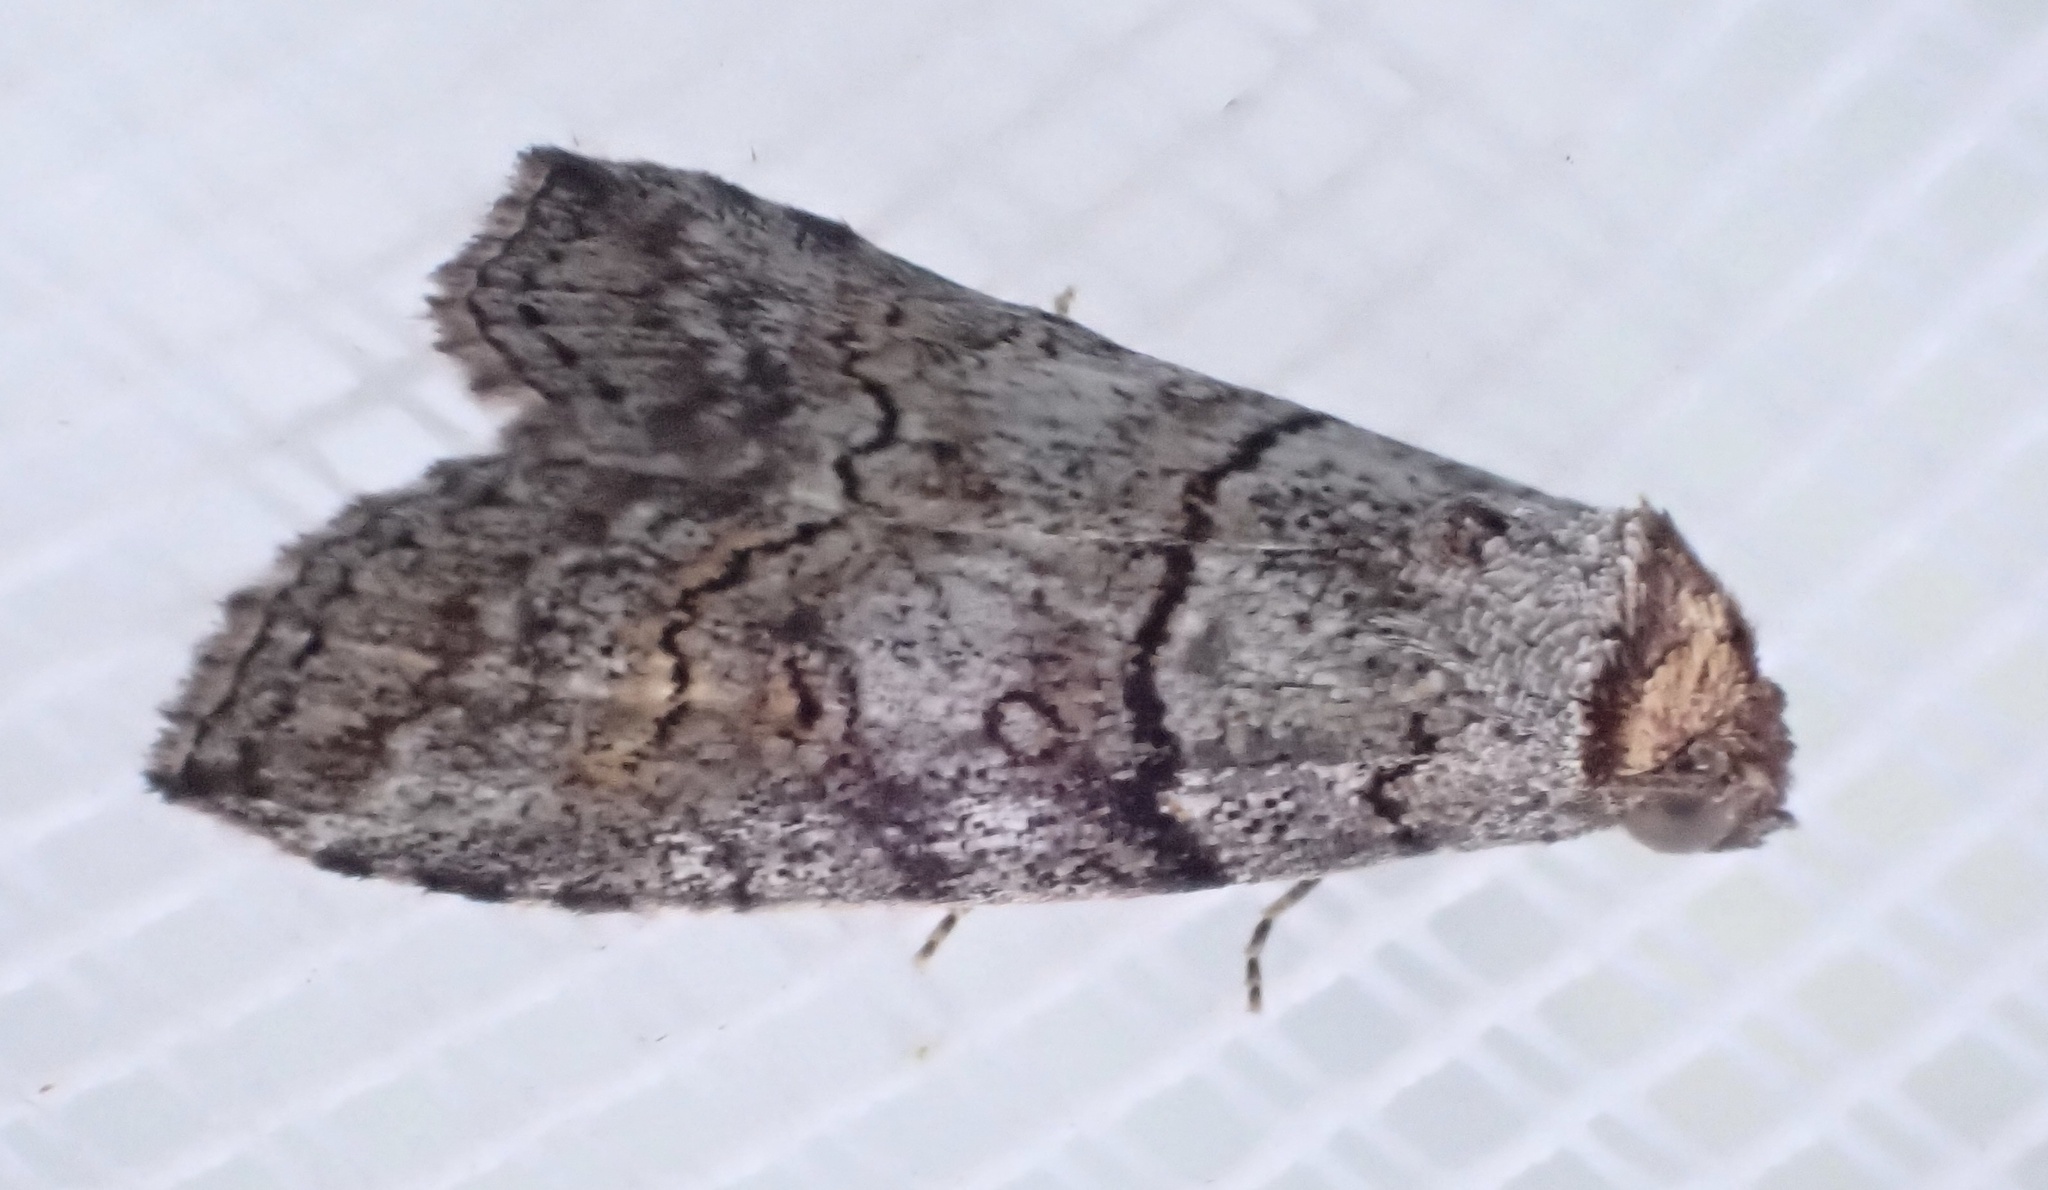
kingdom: Animalia
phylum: Arthropoda
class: Insecta
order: Lepidoptera
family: Nolidae
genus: Calathusa
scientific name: Calathusa hypotherma
